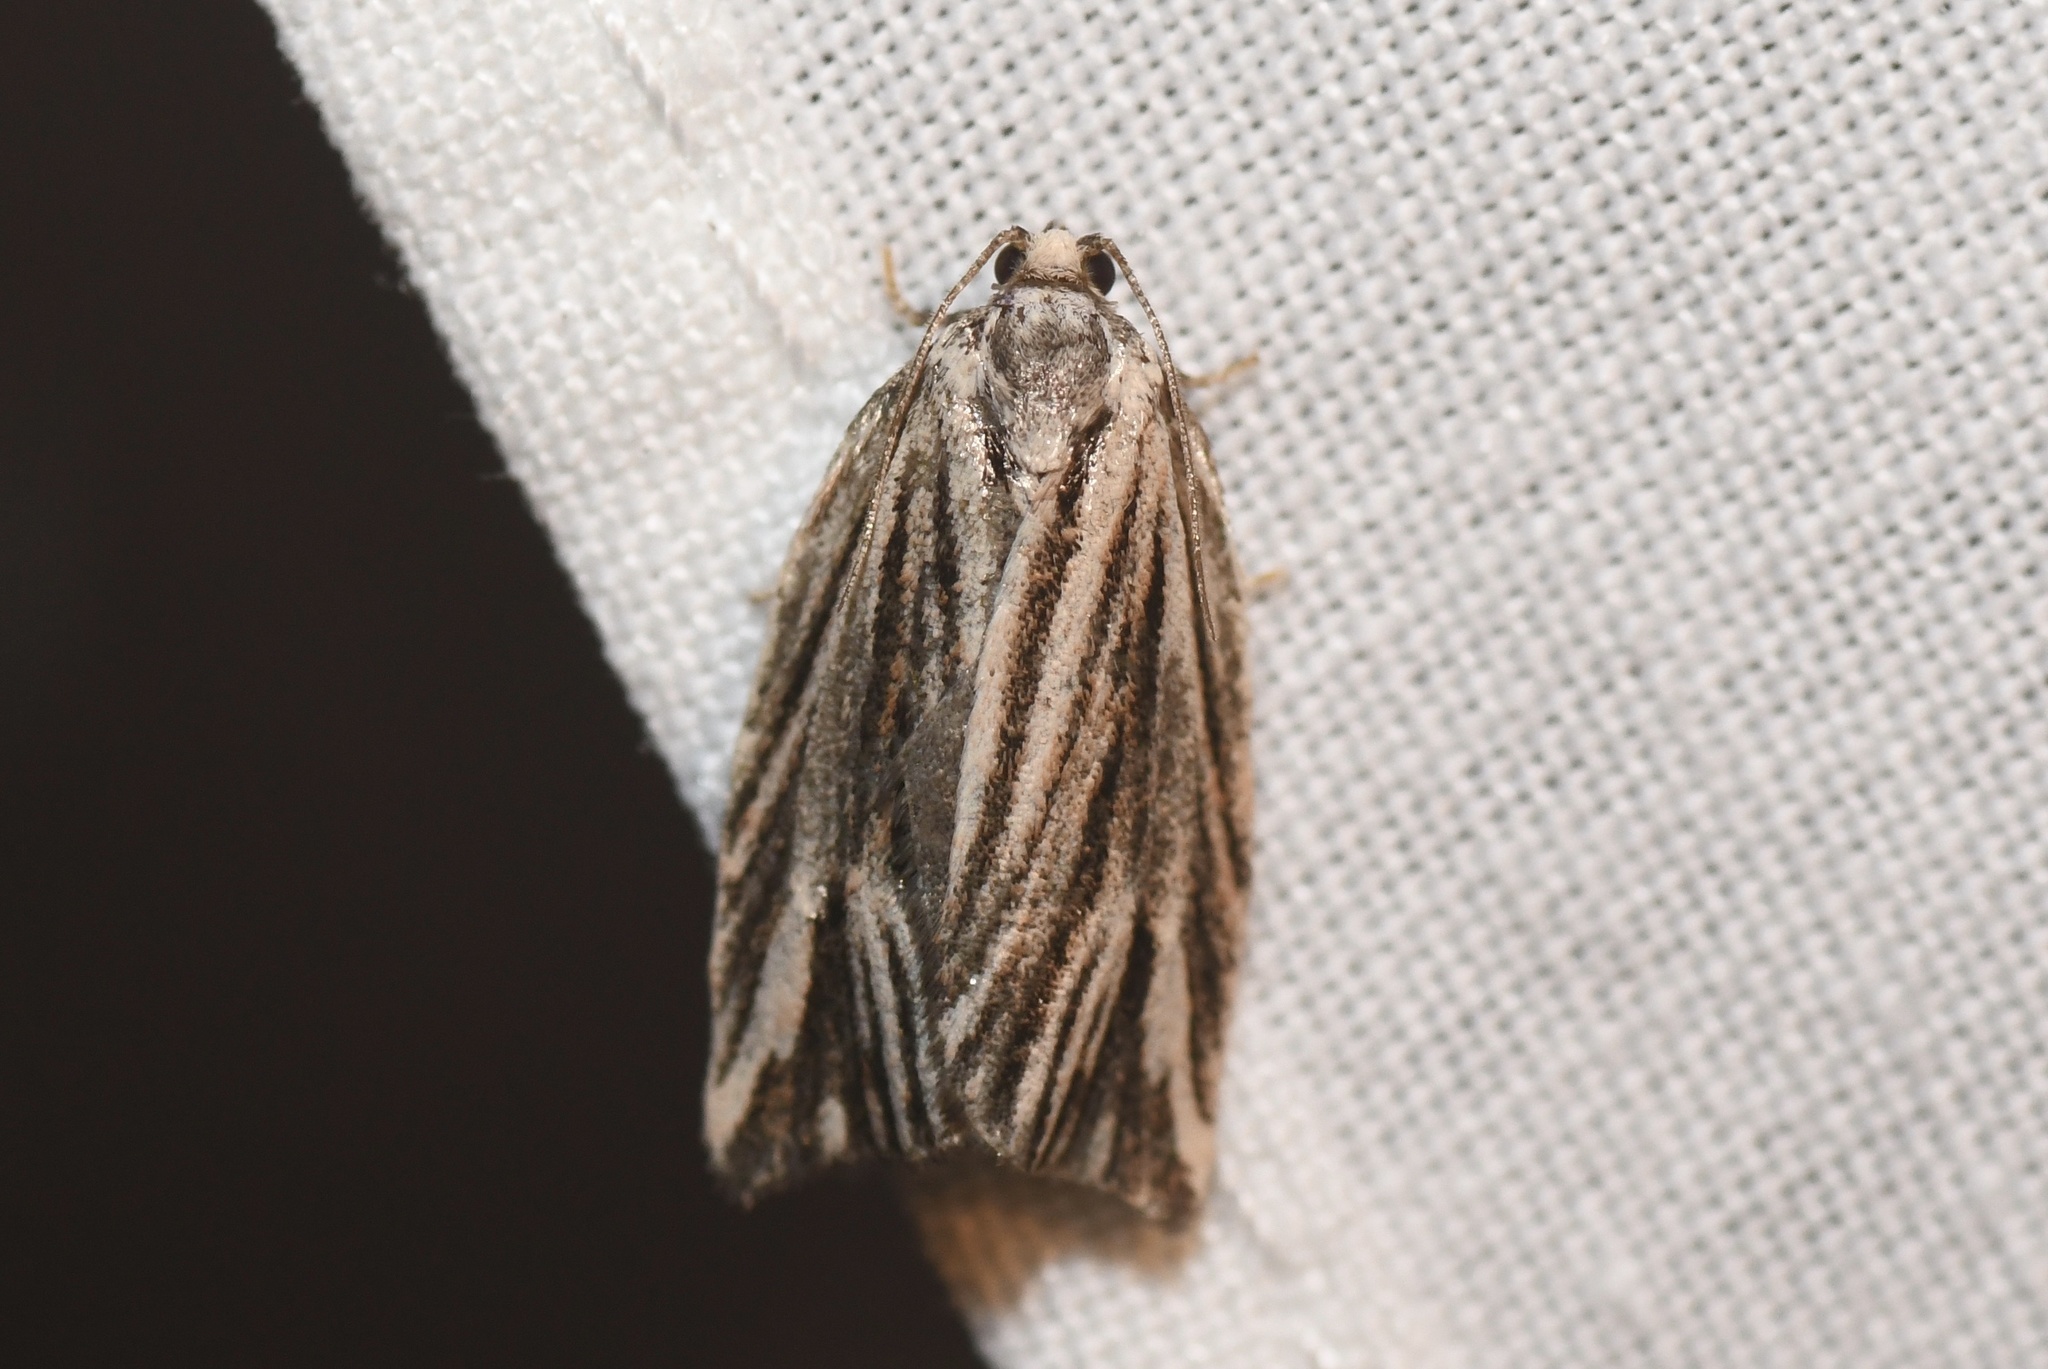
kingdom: Animalia
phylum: Arthropoda
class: Insecta
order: Lepidoptera
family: Tortricidae
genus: Archips
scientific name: Archips strianus
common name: Striated tortrix moth
